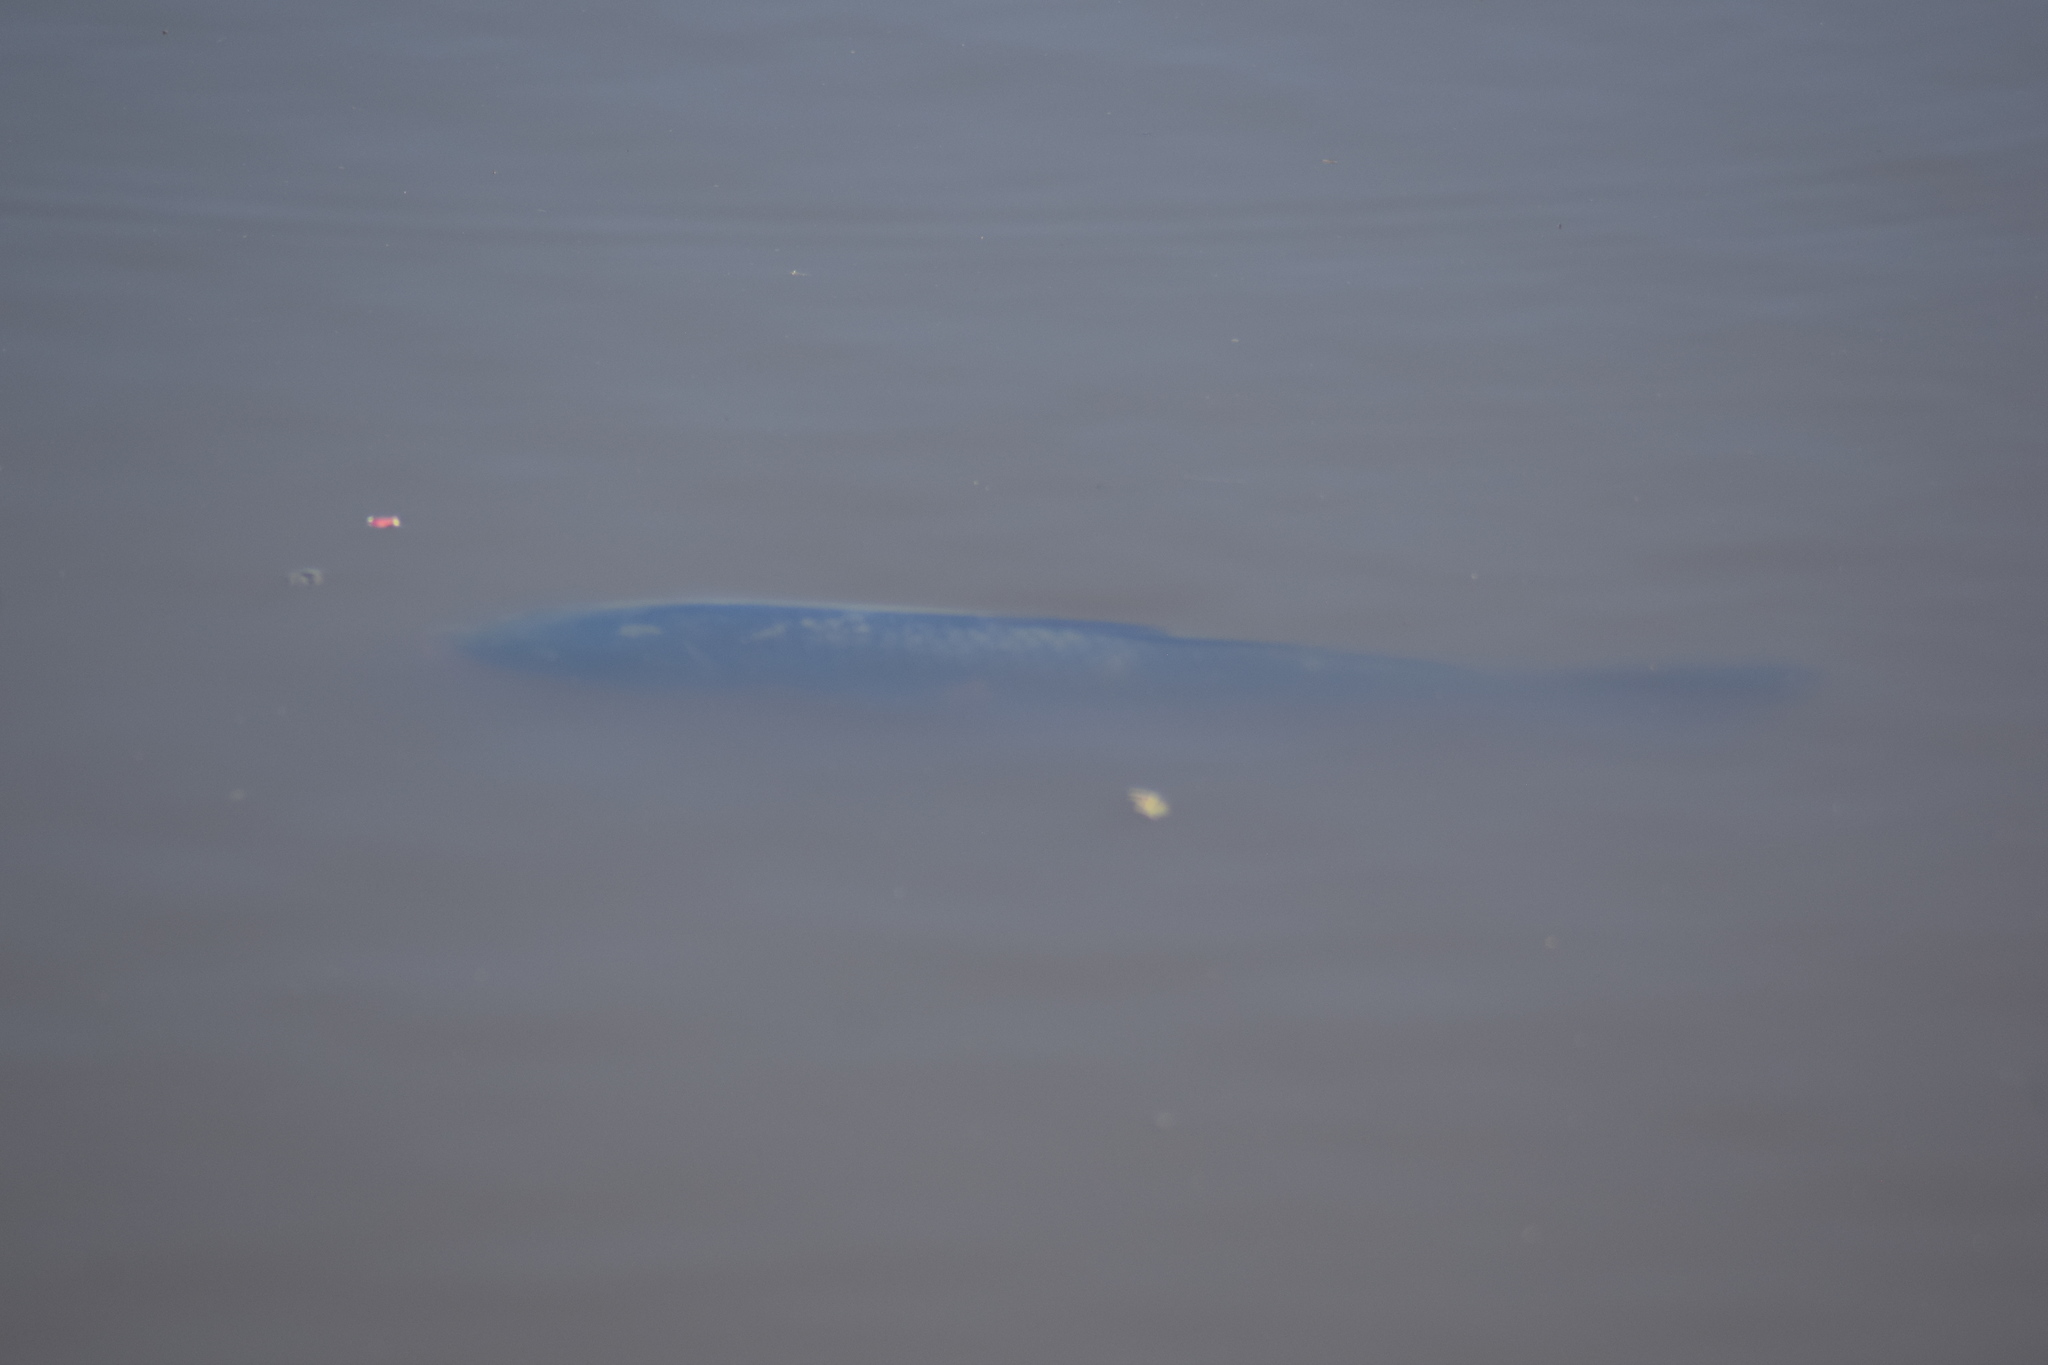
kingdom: Animalia
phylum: Chordata
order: Cypriniformes
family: Cyprinidae
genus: Cyprinus
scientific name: Cyprinus carpio
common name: Common carp
